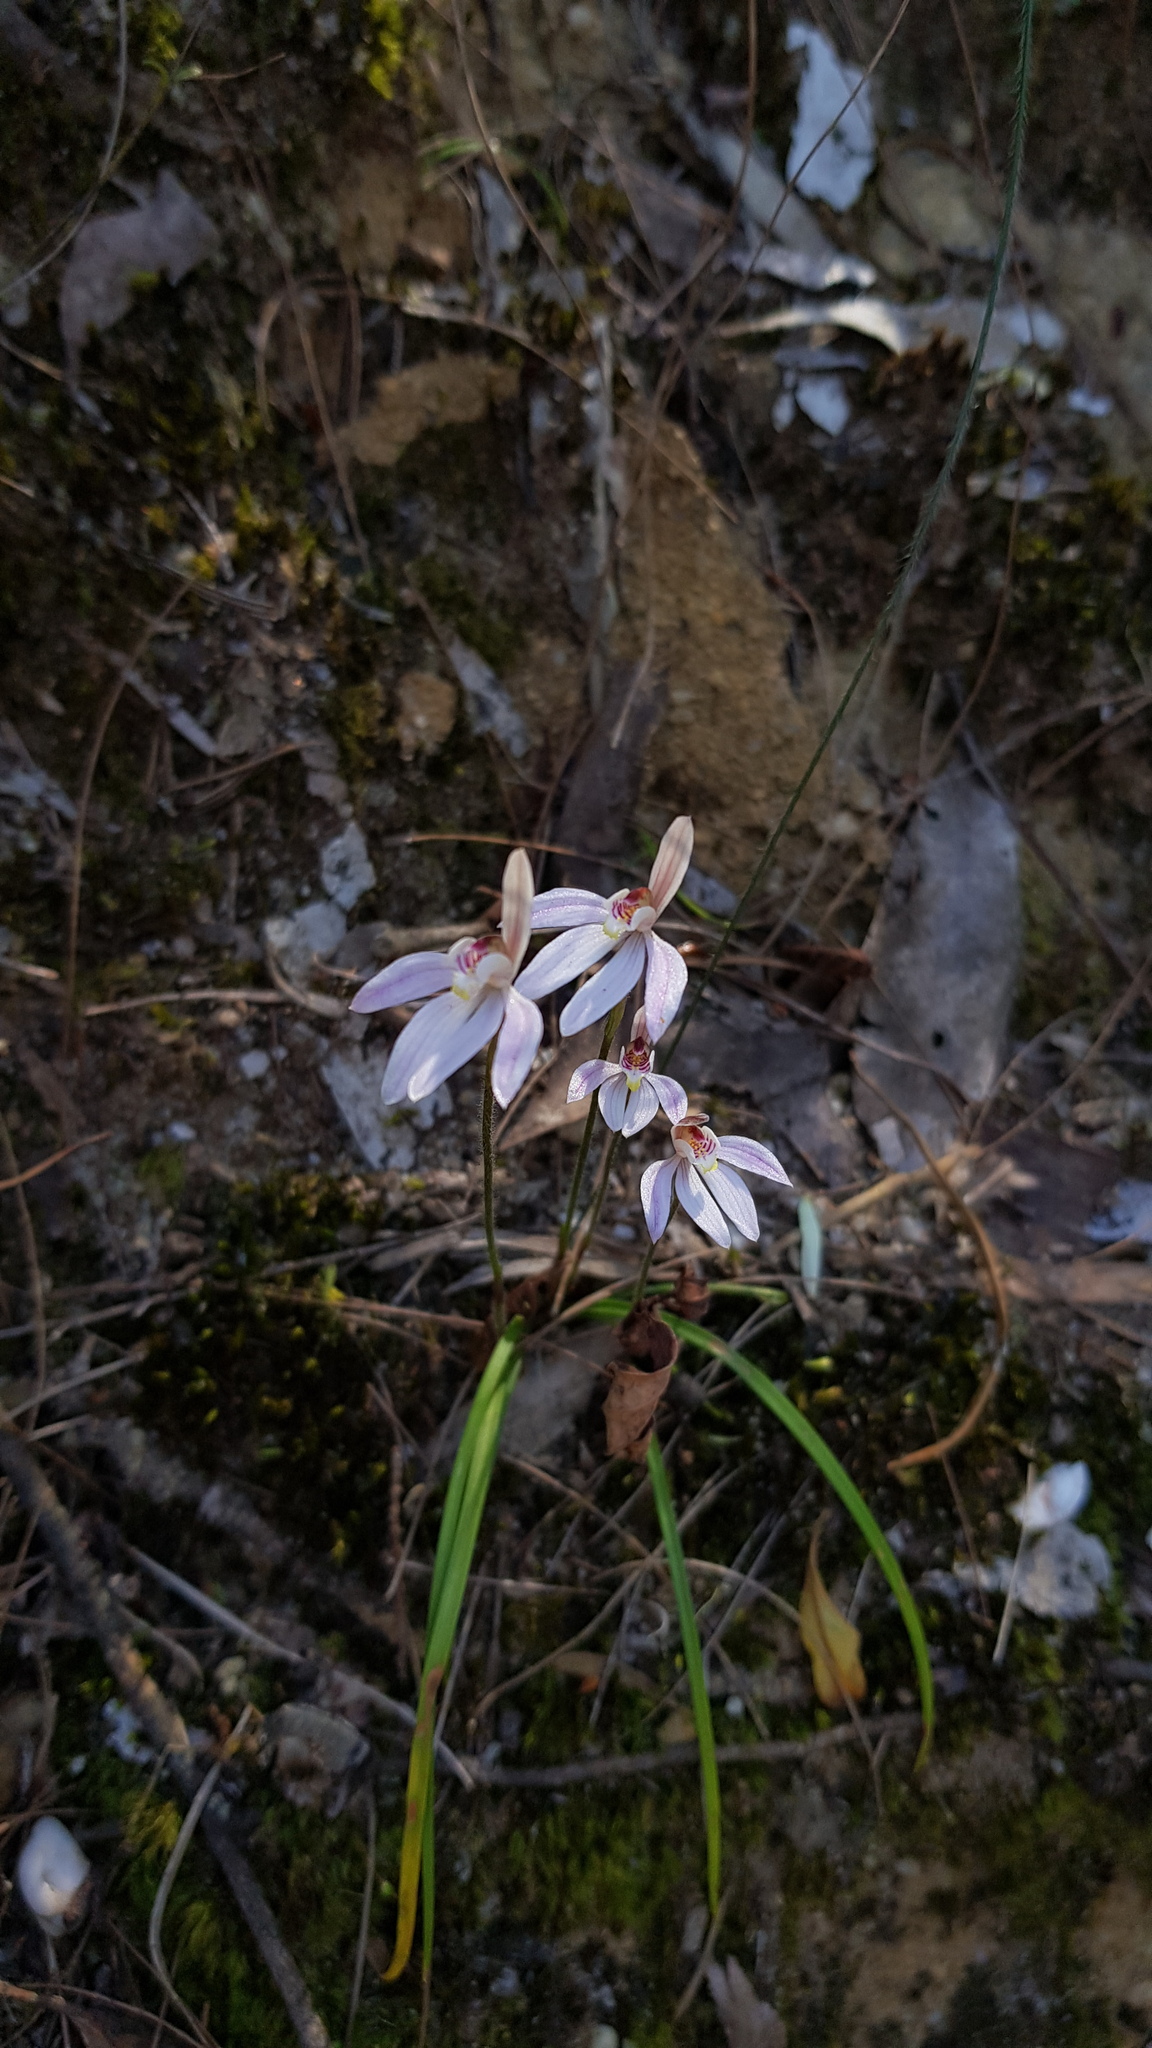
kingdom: Plantae
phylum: Tracheophyta
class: Liliopsida
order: Asparagales
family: Orchidaceae
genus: Caladenia
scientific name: Caladenia carnea
